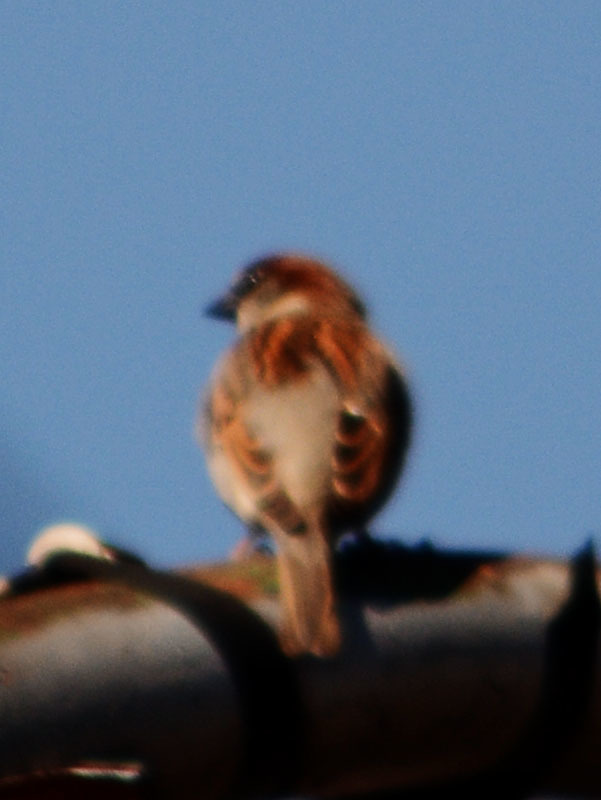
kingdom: Animalia
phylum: Chordata
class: Aves
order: Passeriformes
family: Passeridae
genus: Passer
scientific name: Passer domesticus
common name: House sparrow
